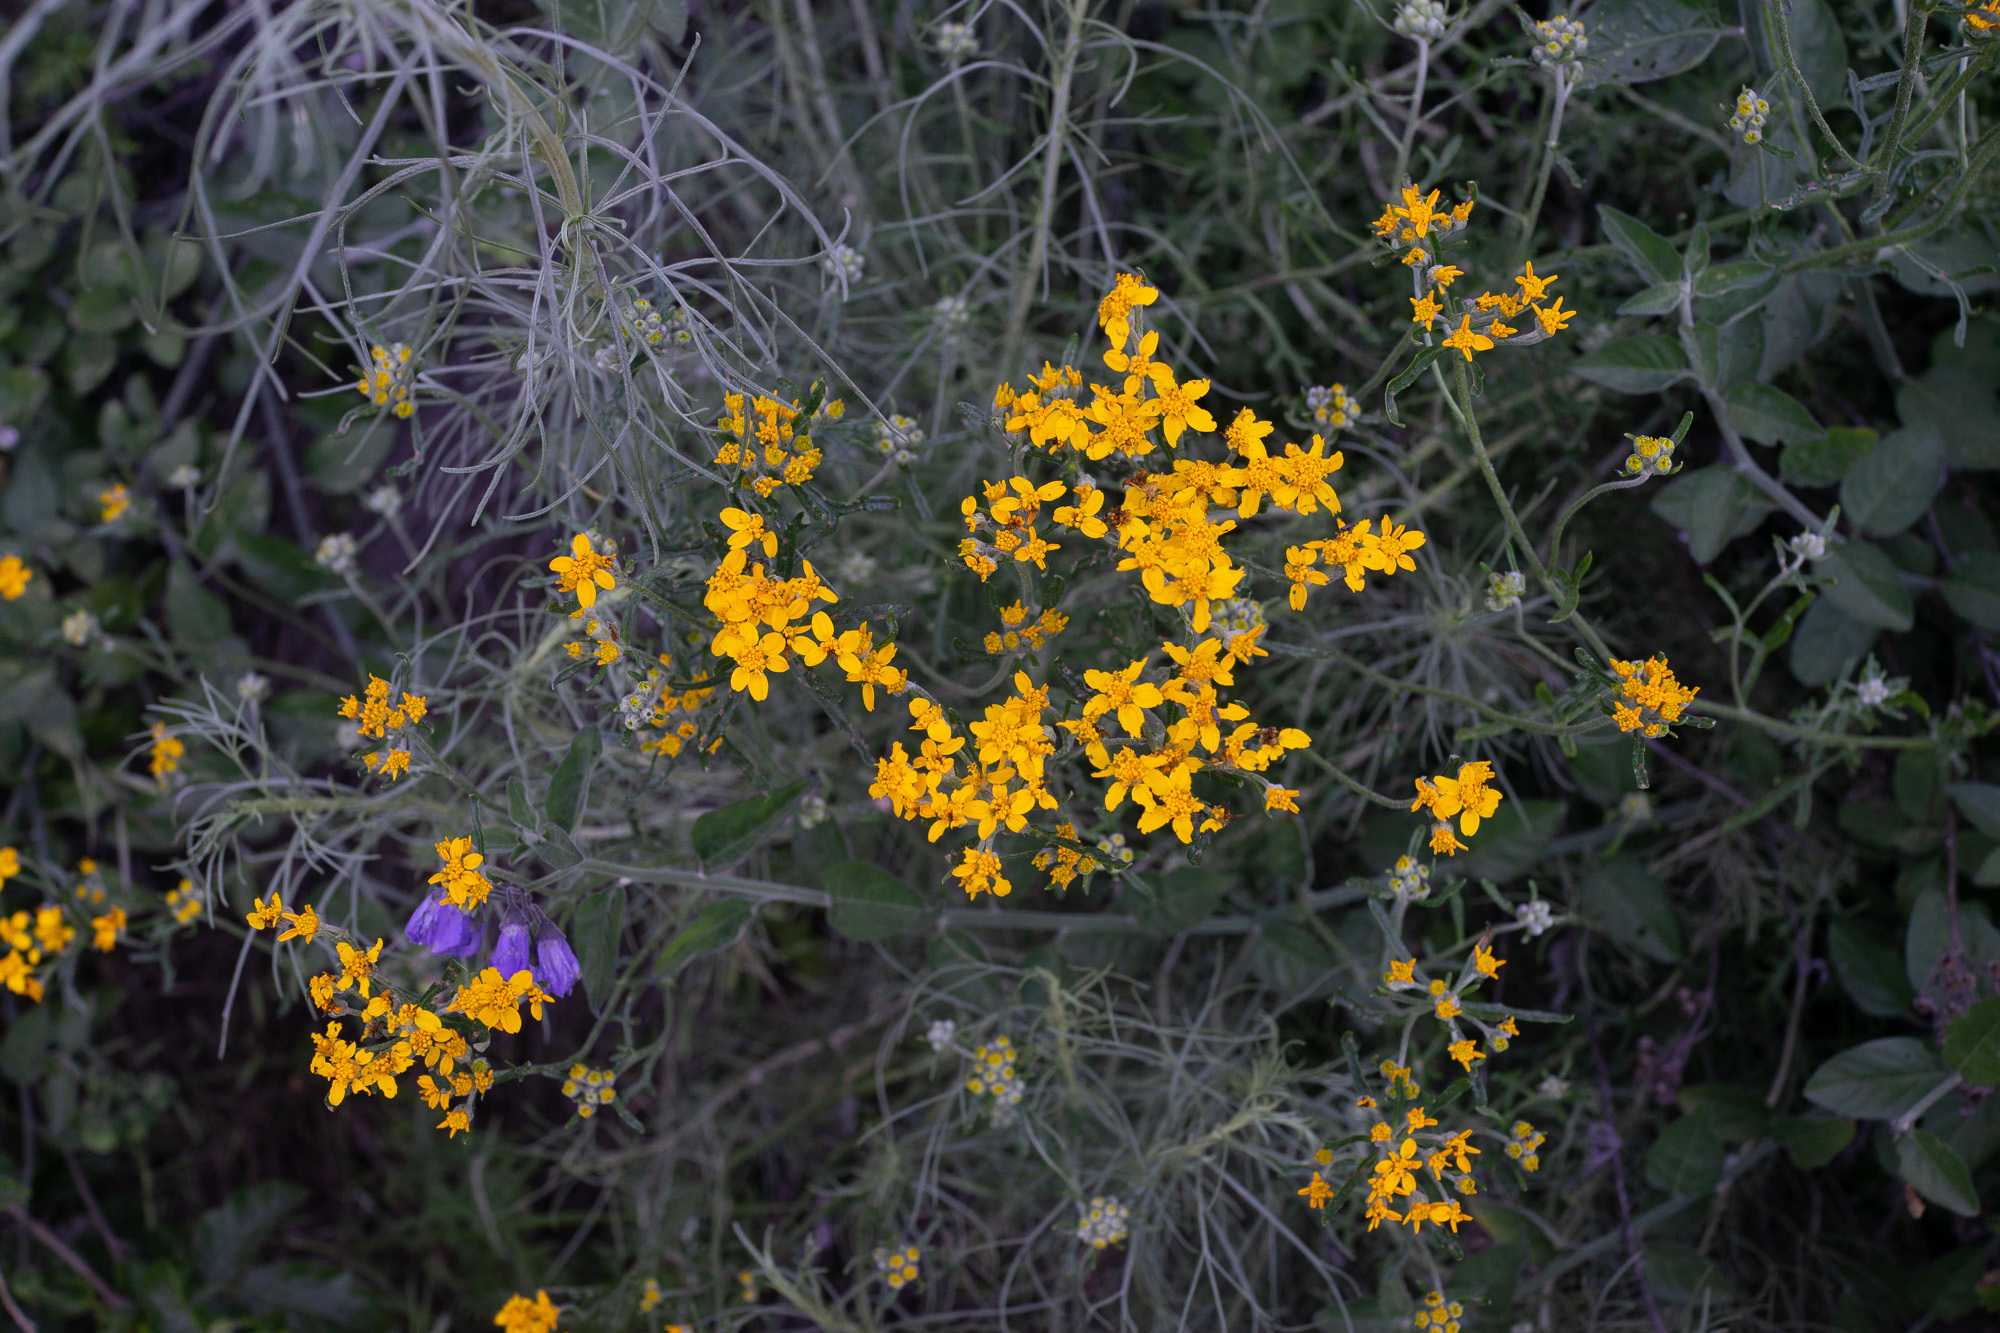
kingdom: Plantae
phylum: Tracheophyta
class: Magnoliopsida
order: Asterales
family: Asteraceae
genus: Eriophyllum
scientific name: Eriophyllum confertiflorum
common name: Golden-yarrow
